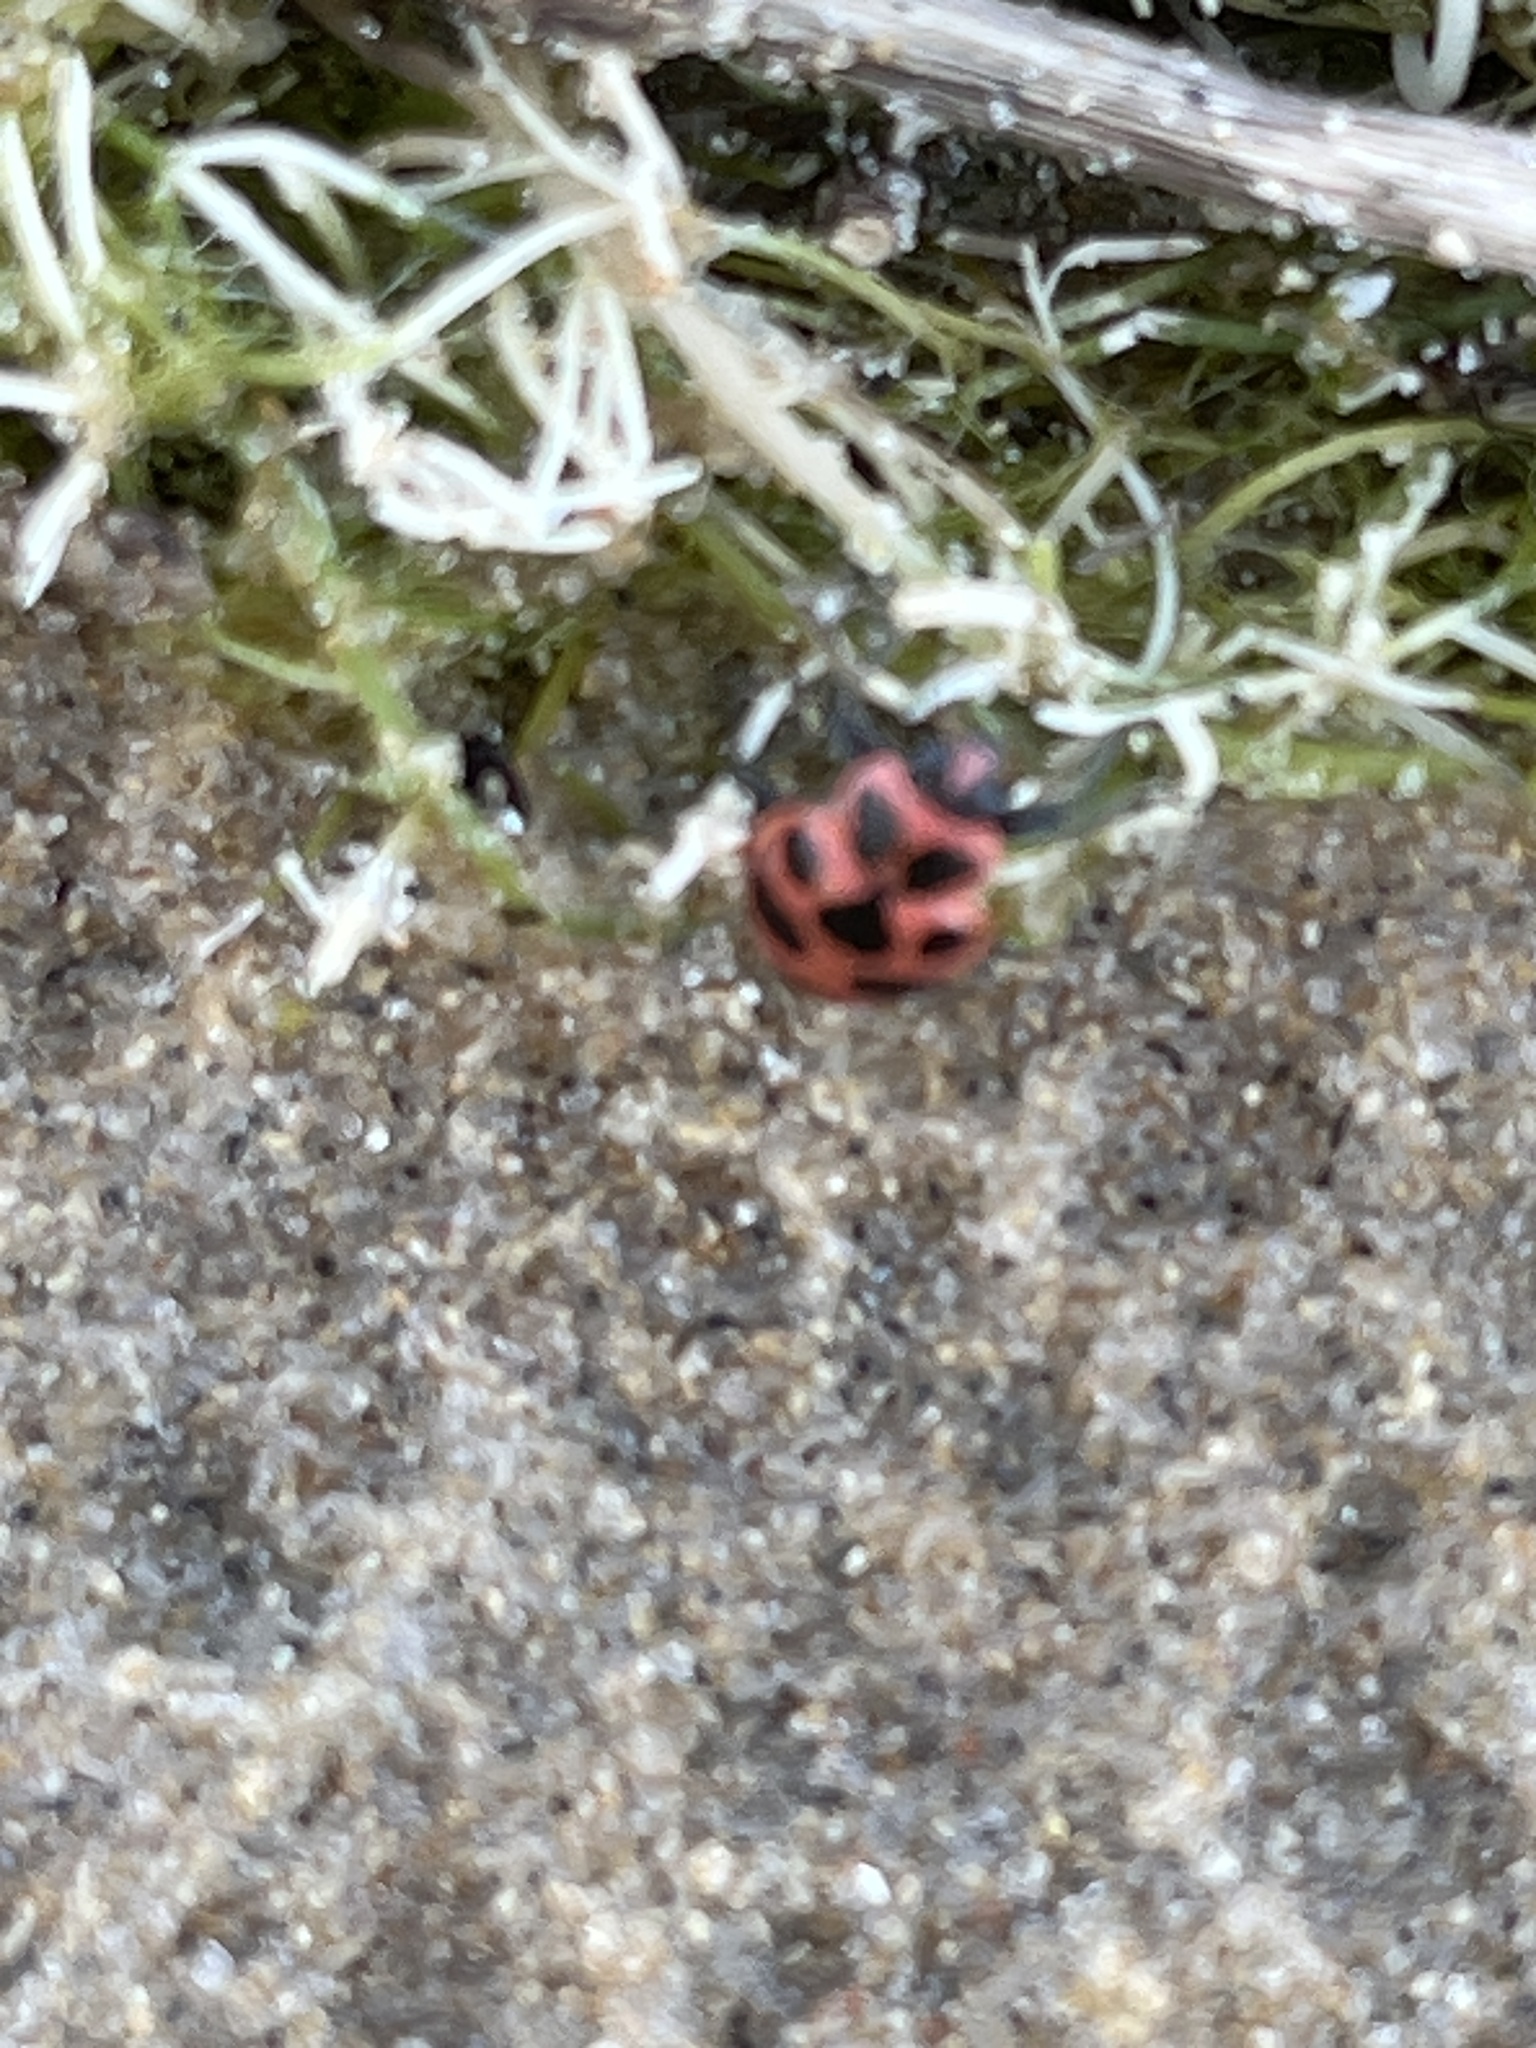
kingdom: Animalia
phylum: Arthropoda
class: Insecta
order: Coleoptera
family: Coccinellidae
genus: Coleomegilla
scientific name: Coleomegilla maculata
